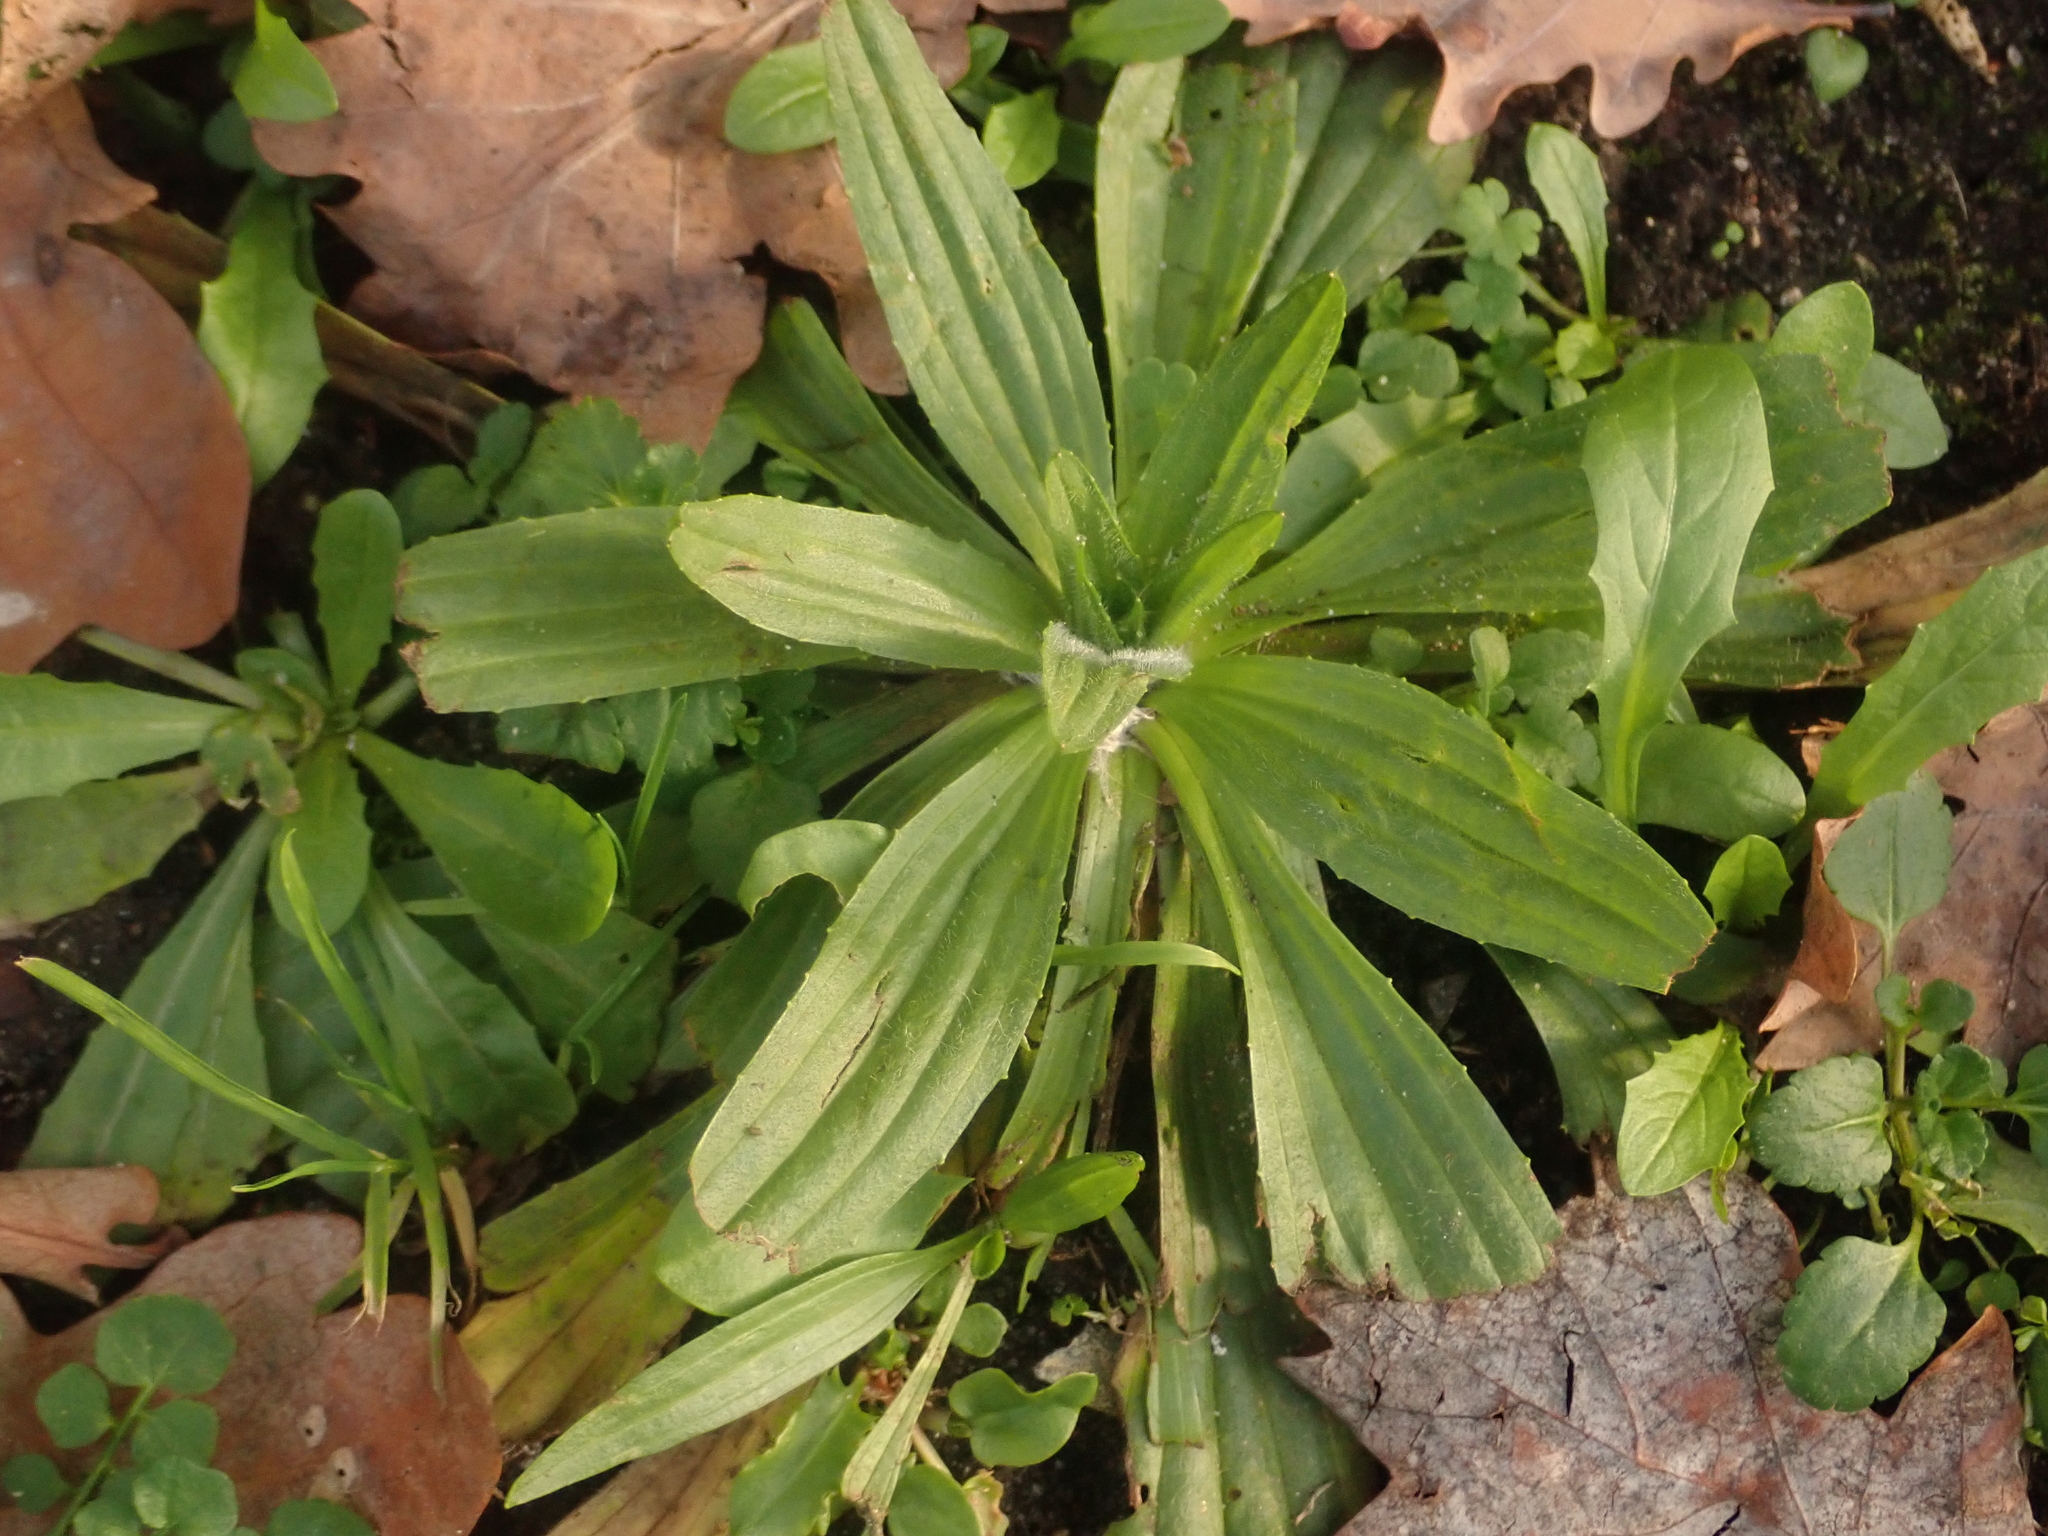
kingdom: Plantae
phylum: Tracheophyta
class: Magnoliopsida
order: Lamiales
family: Plantaginaceae
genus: Plantago
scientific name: Plantago lanceolata
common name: Ribwort plantain
